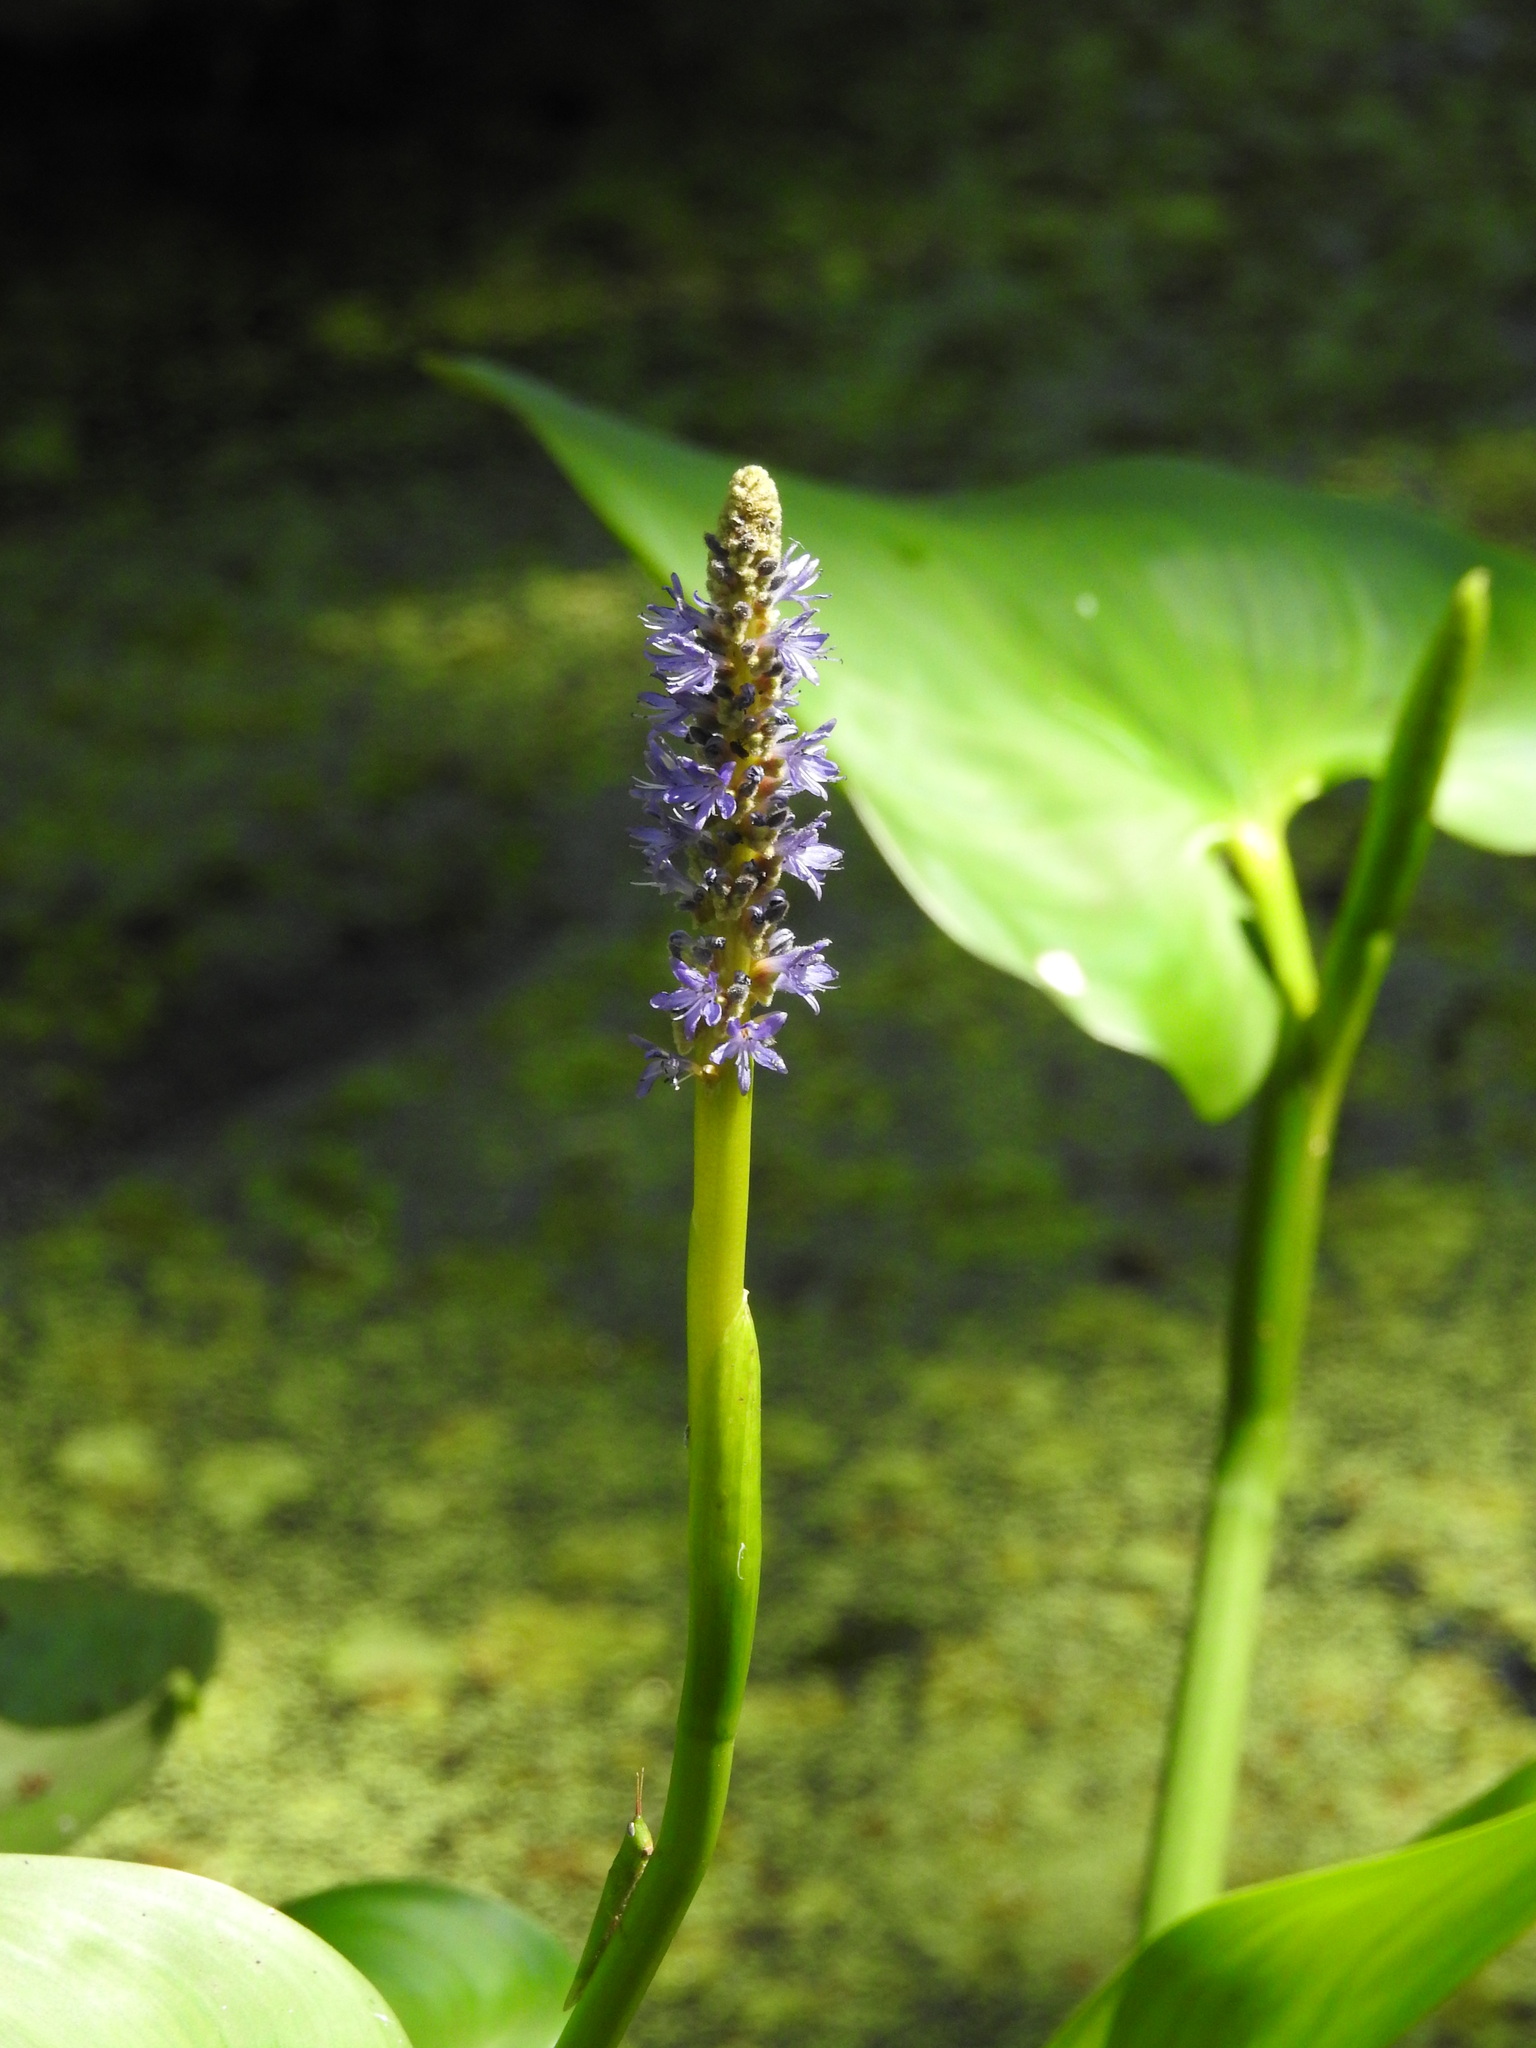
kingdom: Plantae
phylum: Tracheophyta
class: Liliopsida
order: Commelinales
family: Pontederiaceae
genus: Pontederia
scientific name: Pontederia cordata
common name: Pickerelweed
